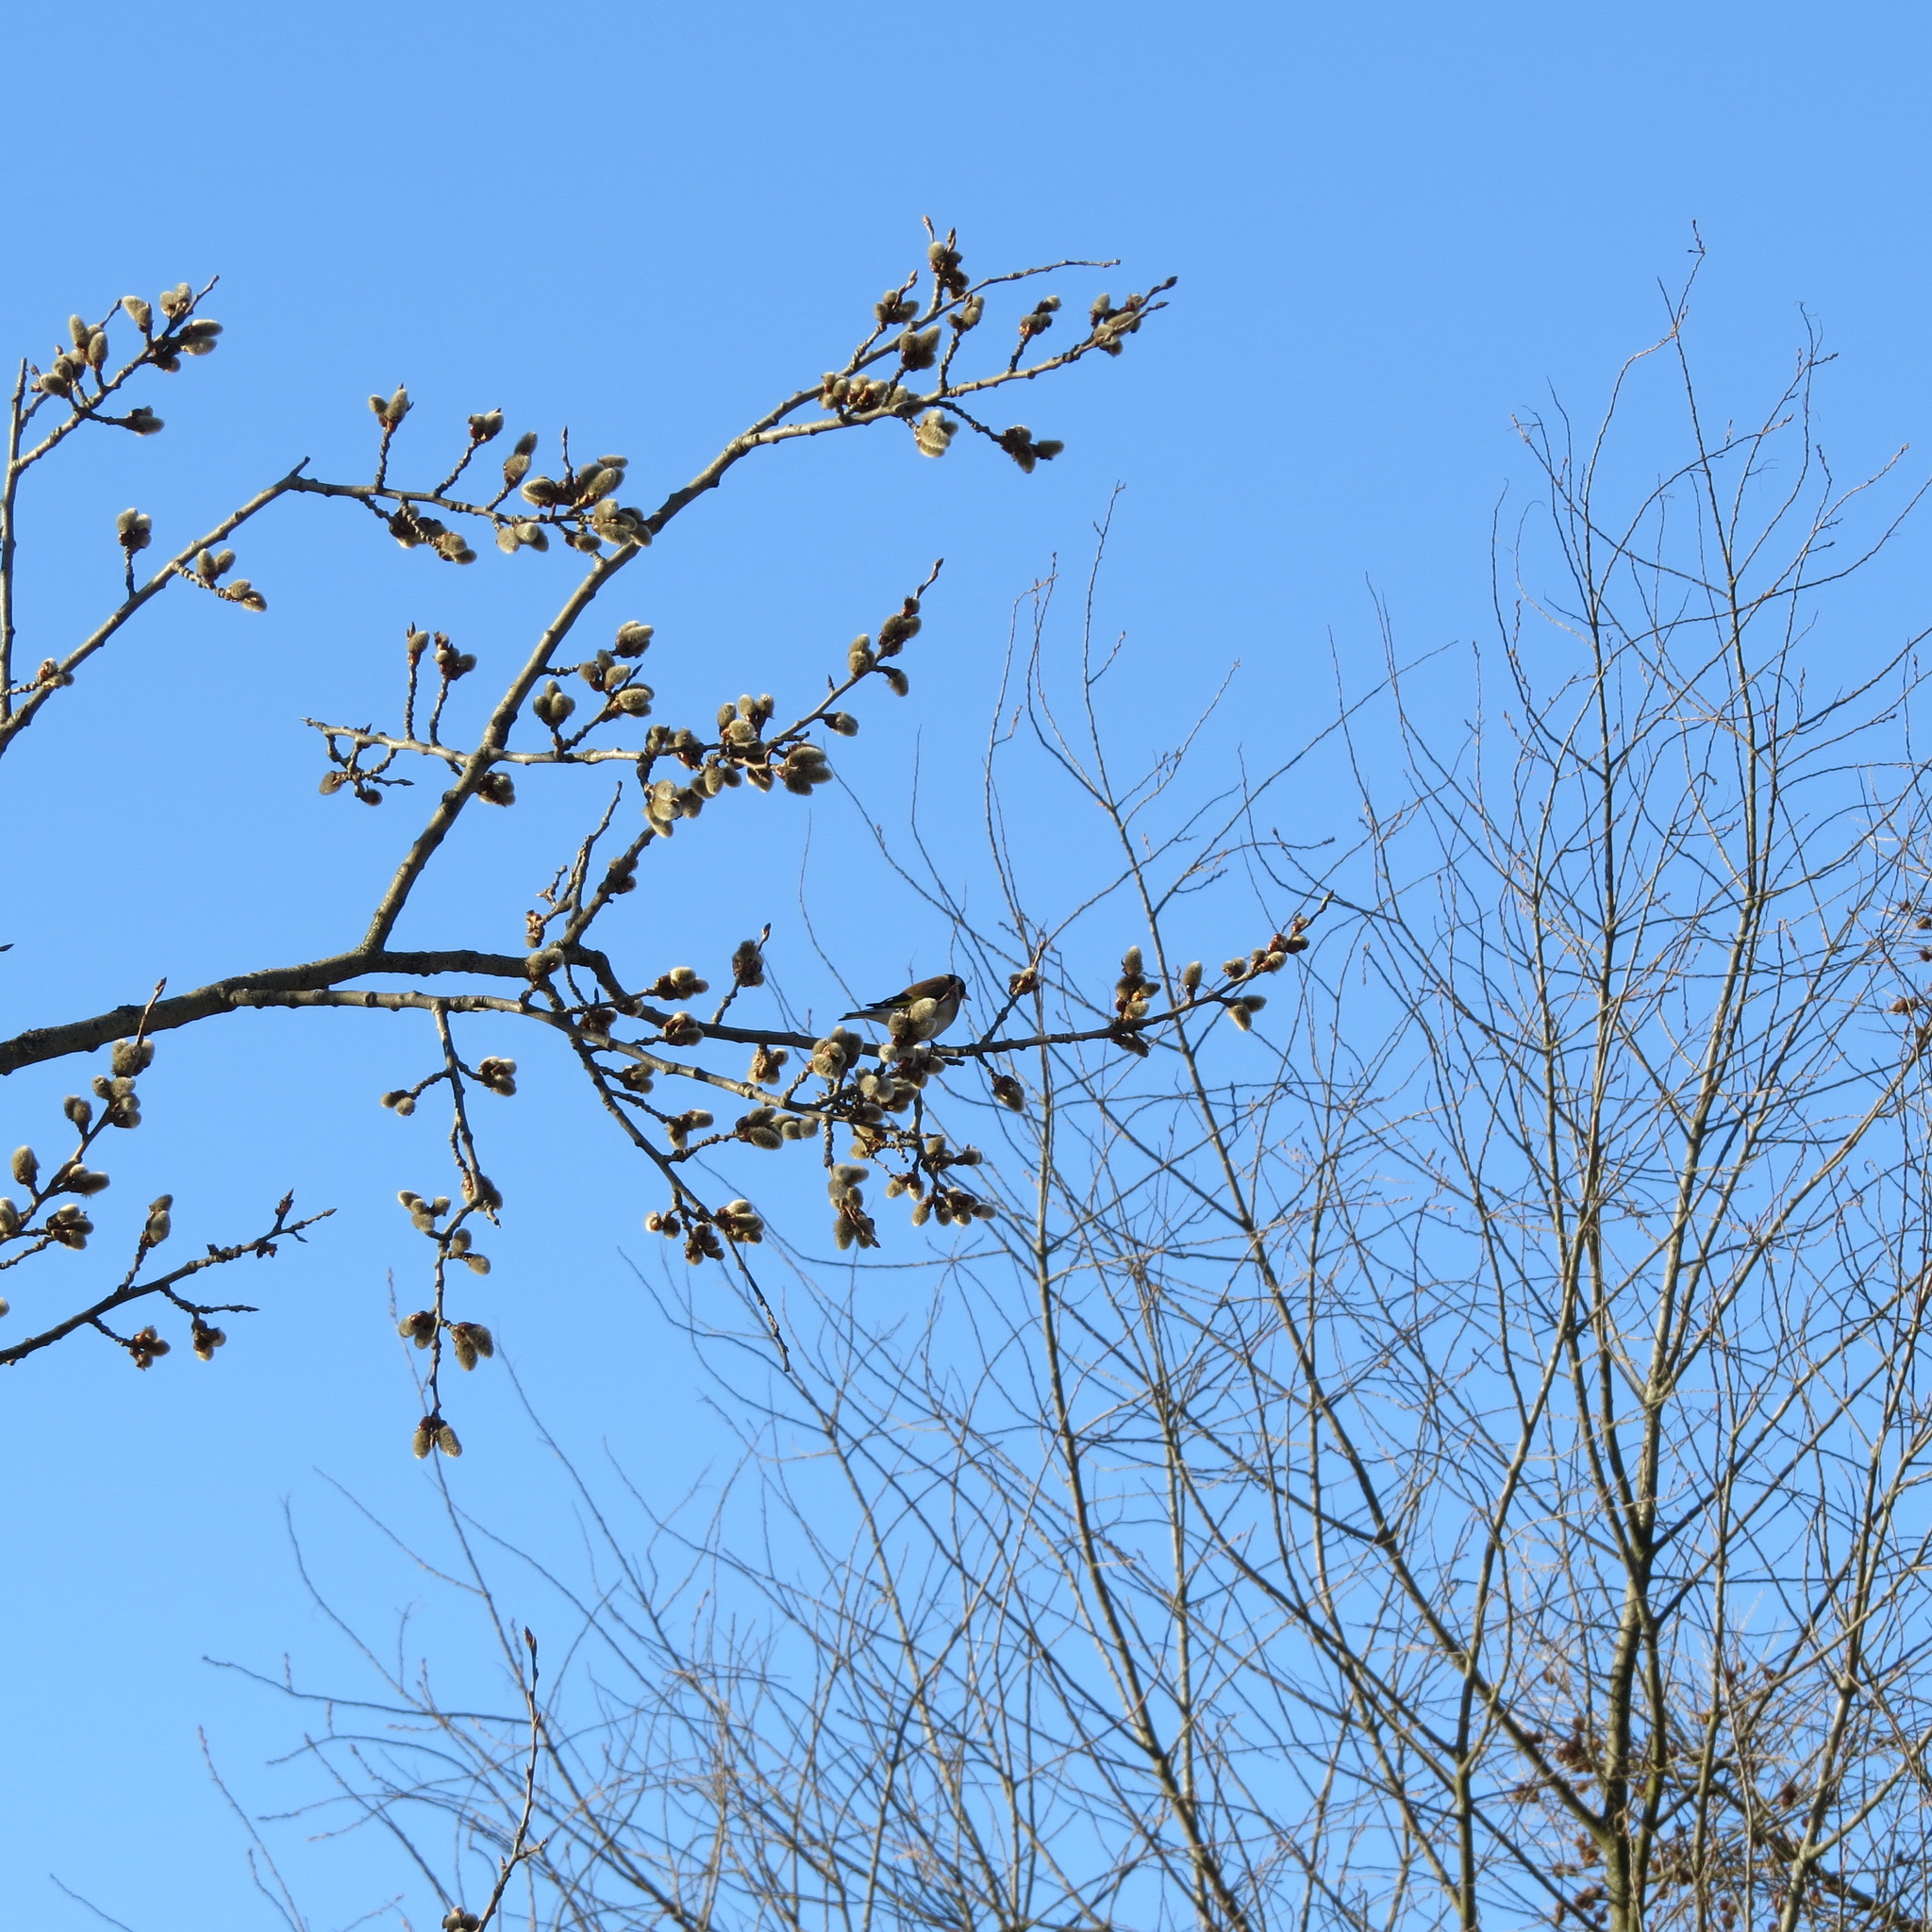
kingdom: Animalia
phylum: Chordata
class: Aves
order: Passeriformes
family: Fringillidae
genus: Carduelis
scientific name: Carduelis carduelis
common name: European goldfinch
